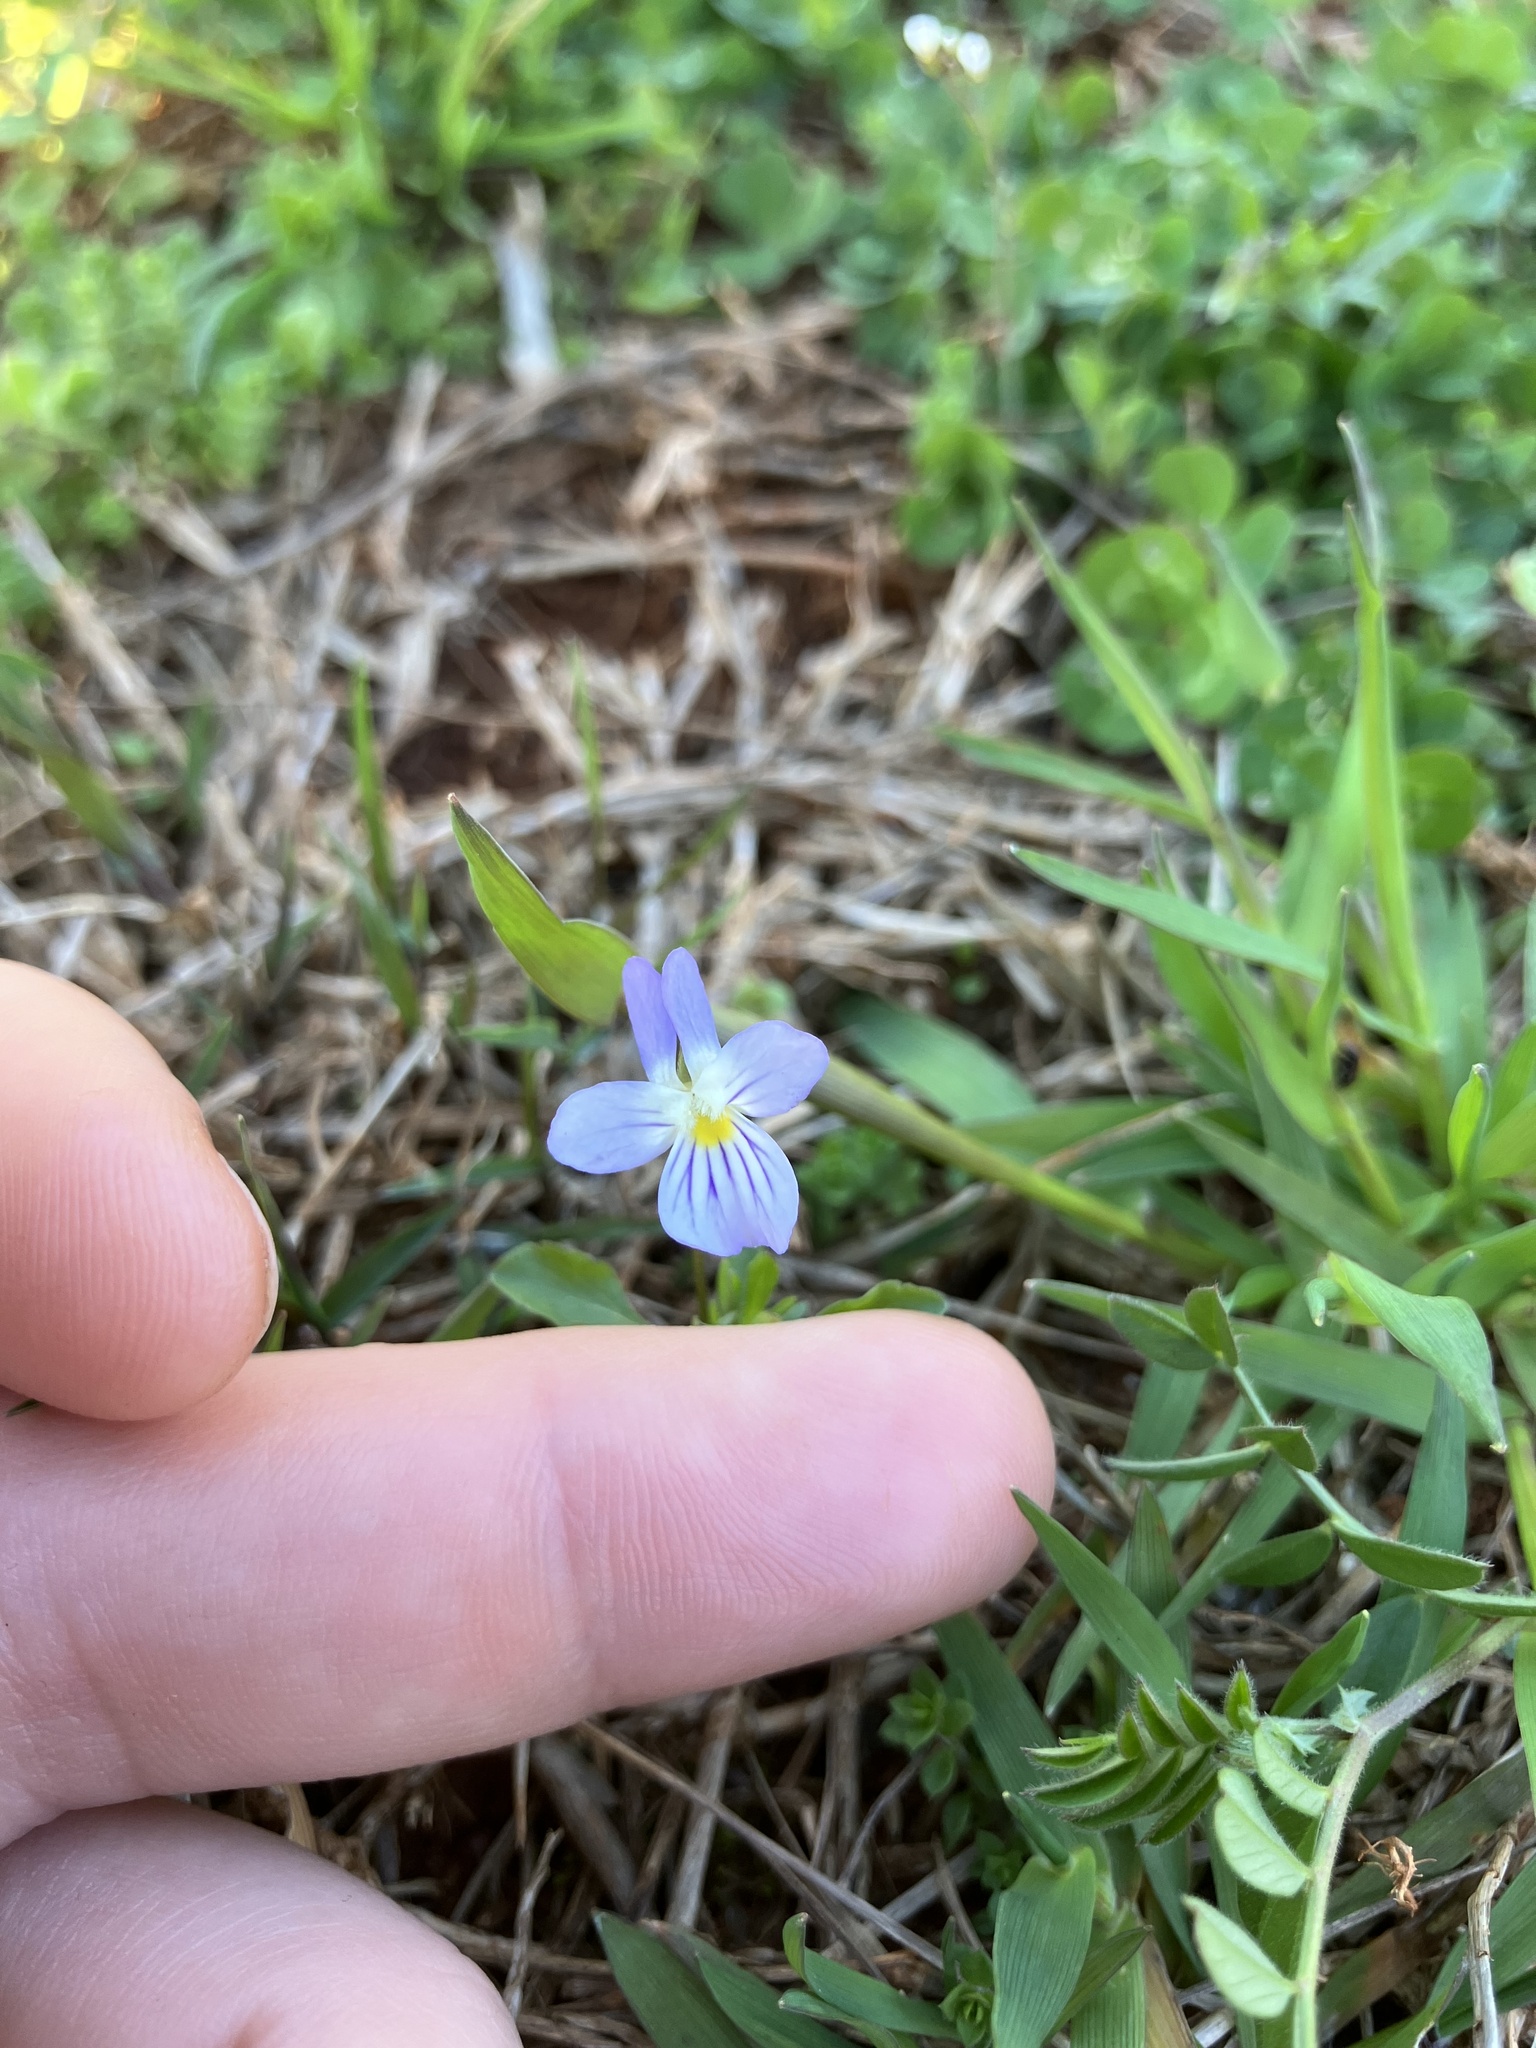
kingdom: Plantae
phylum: Tracheophyta
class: Magnoliopsida
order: Malpighiales
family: Violaceae
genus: Viola
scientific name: Viola rafinesquei
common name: American field pansy
